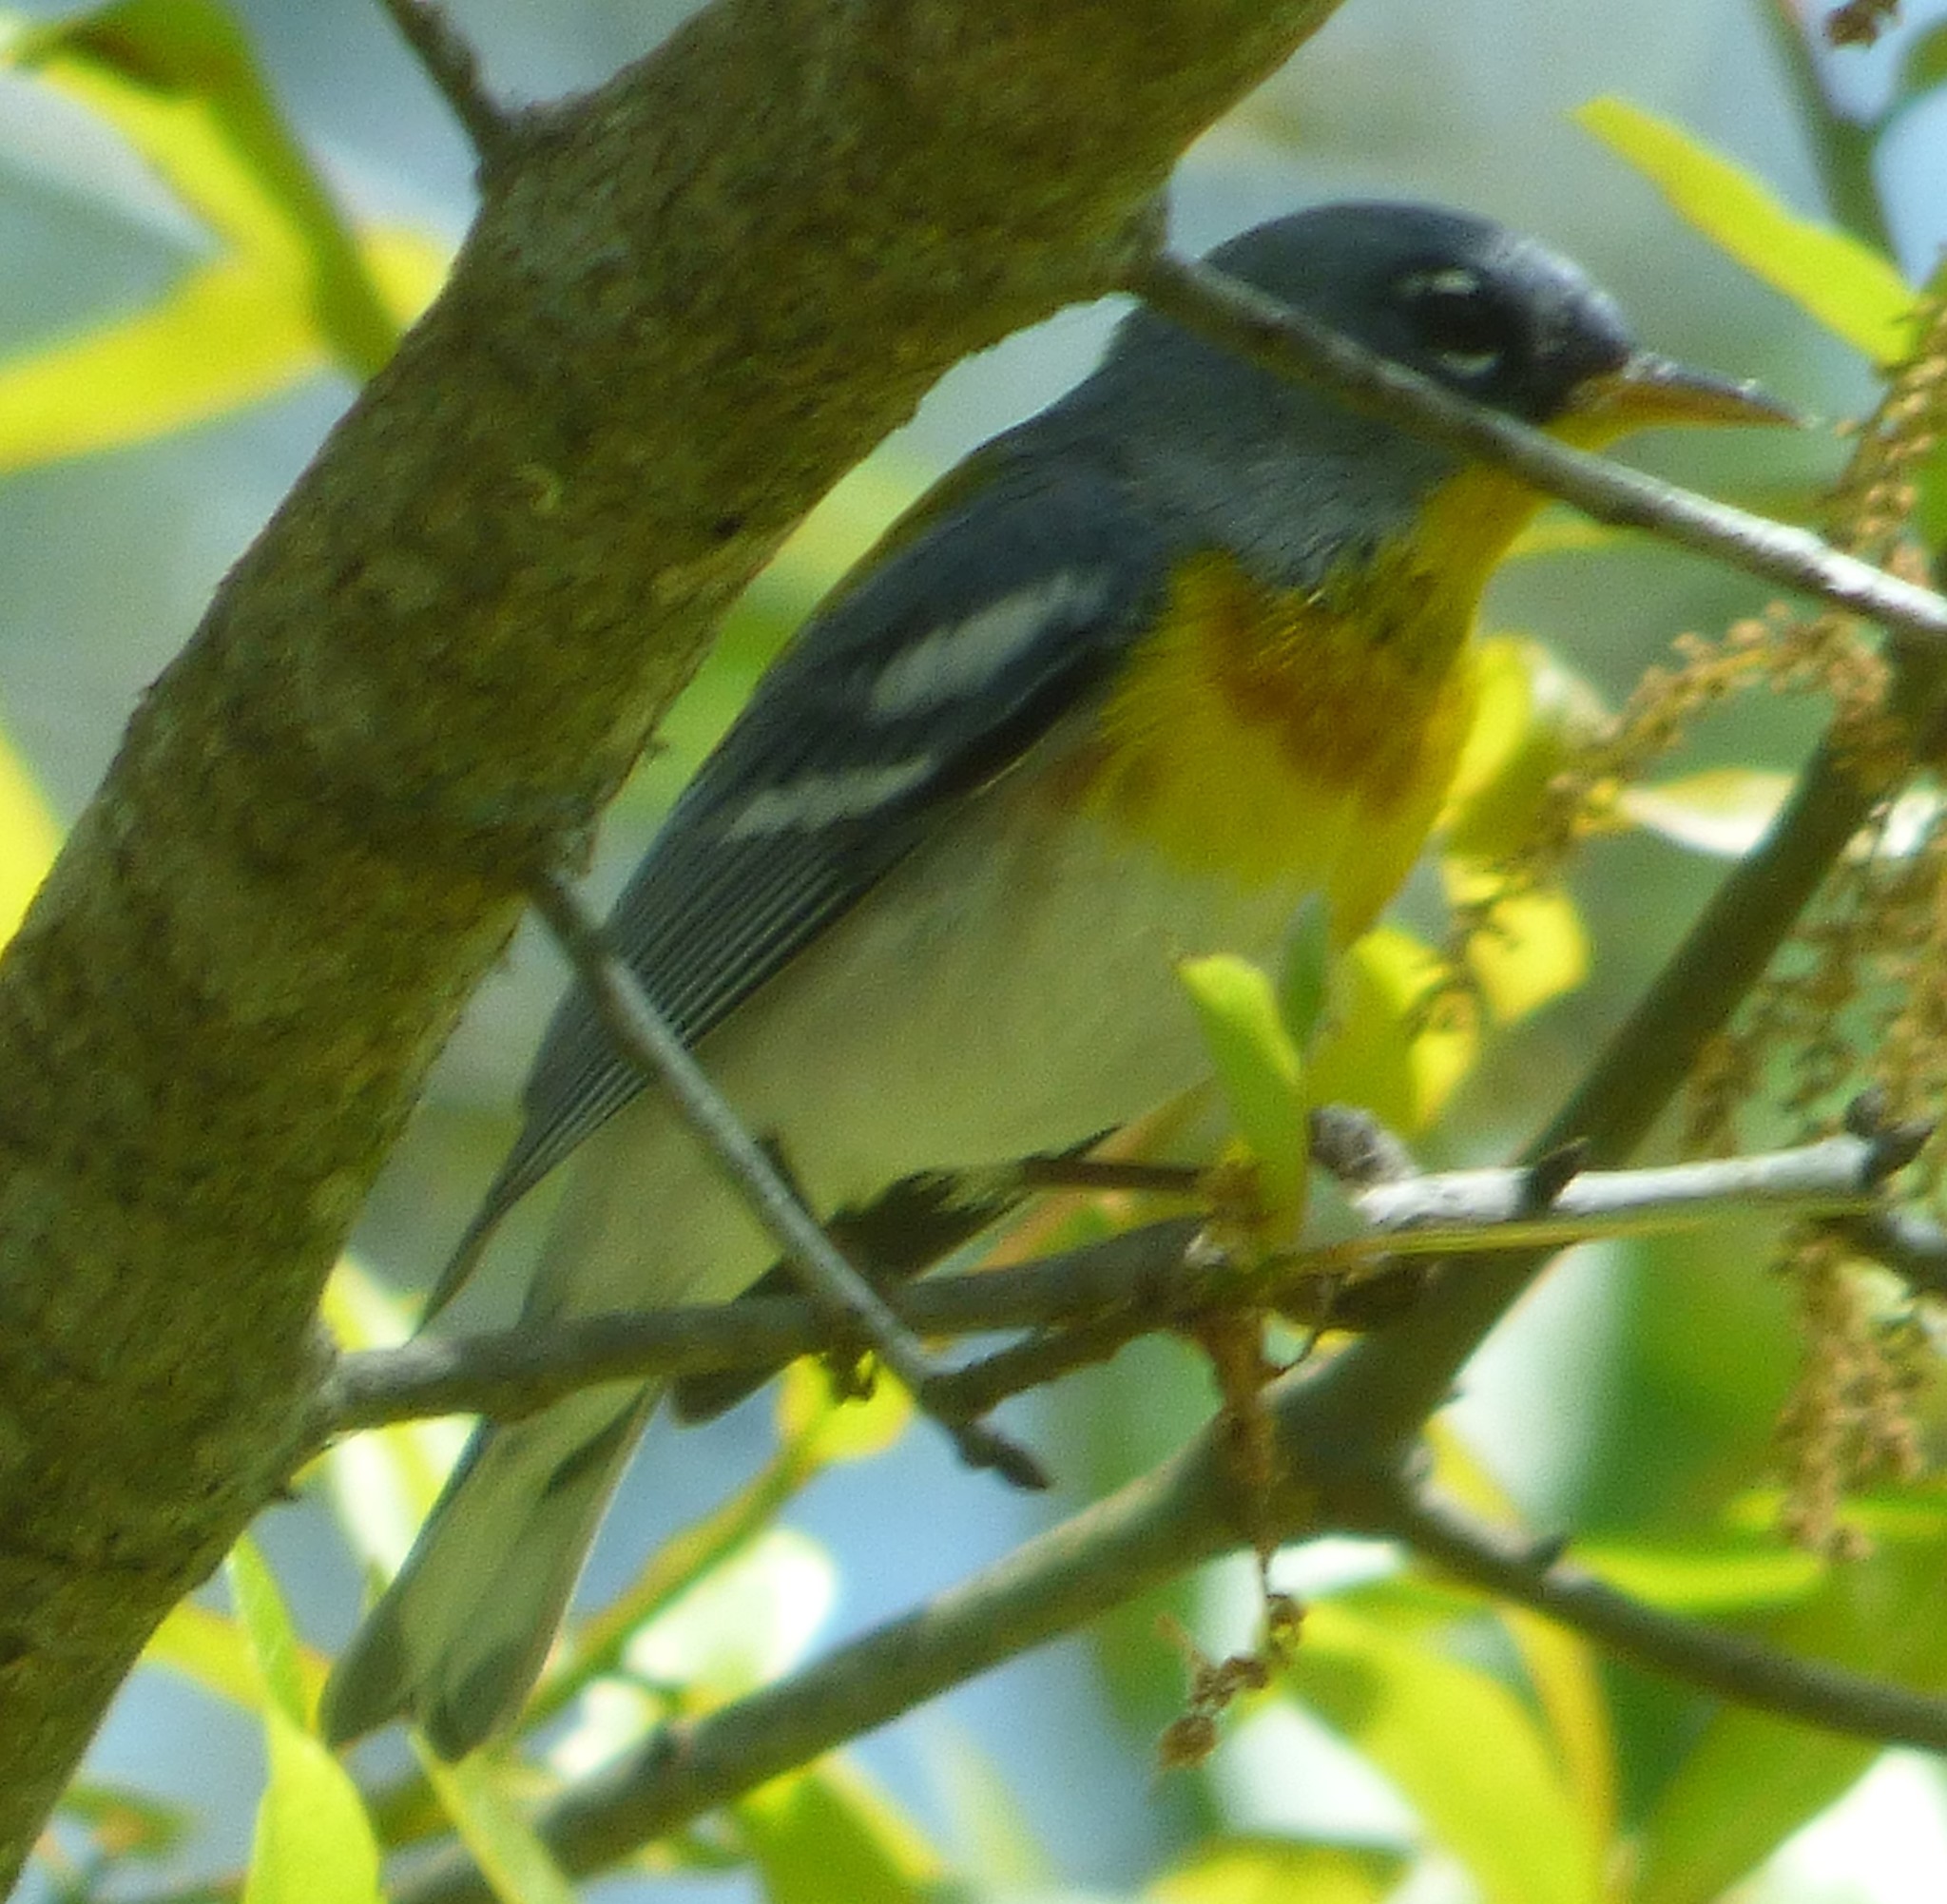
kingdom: Animalia
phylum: Chordata
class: Aves
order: Passeriformes
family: Parulidae
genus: Setophaga
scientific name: Setophaga americana
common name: Northern parula
